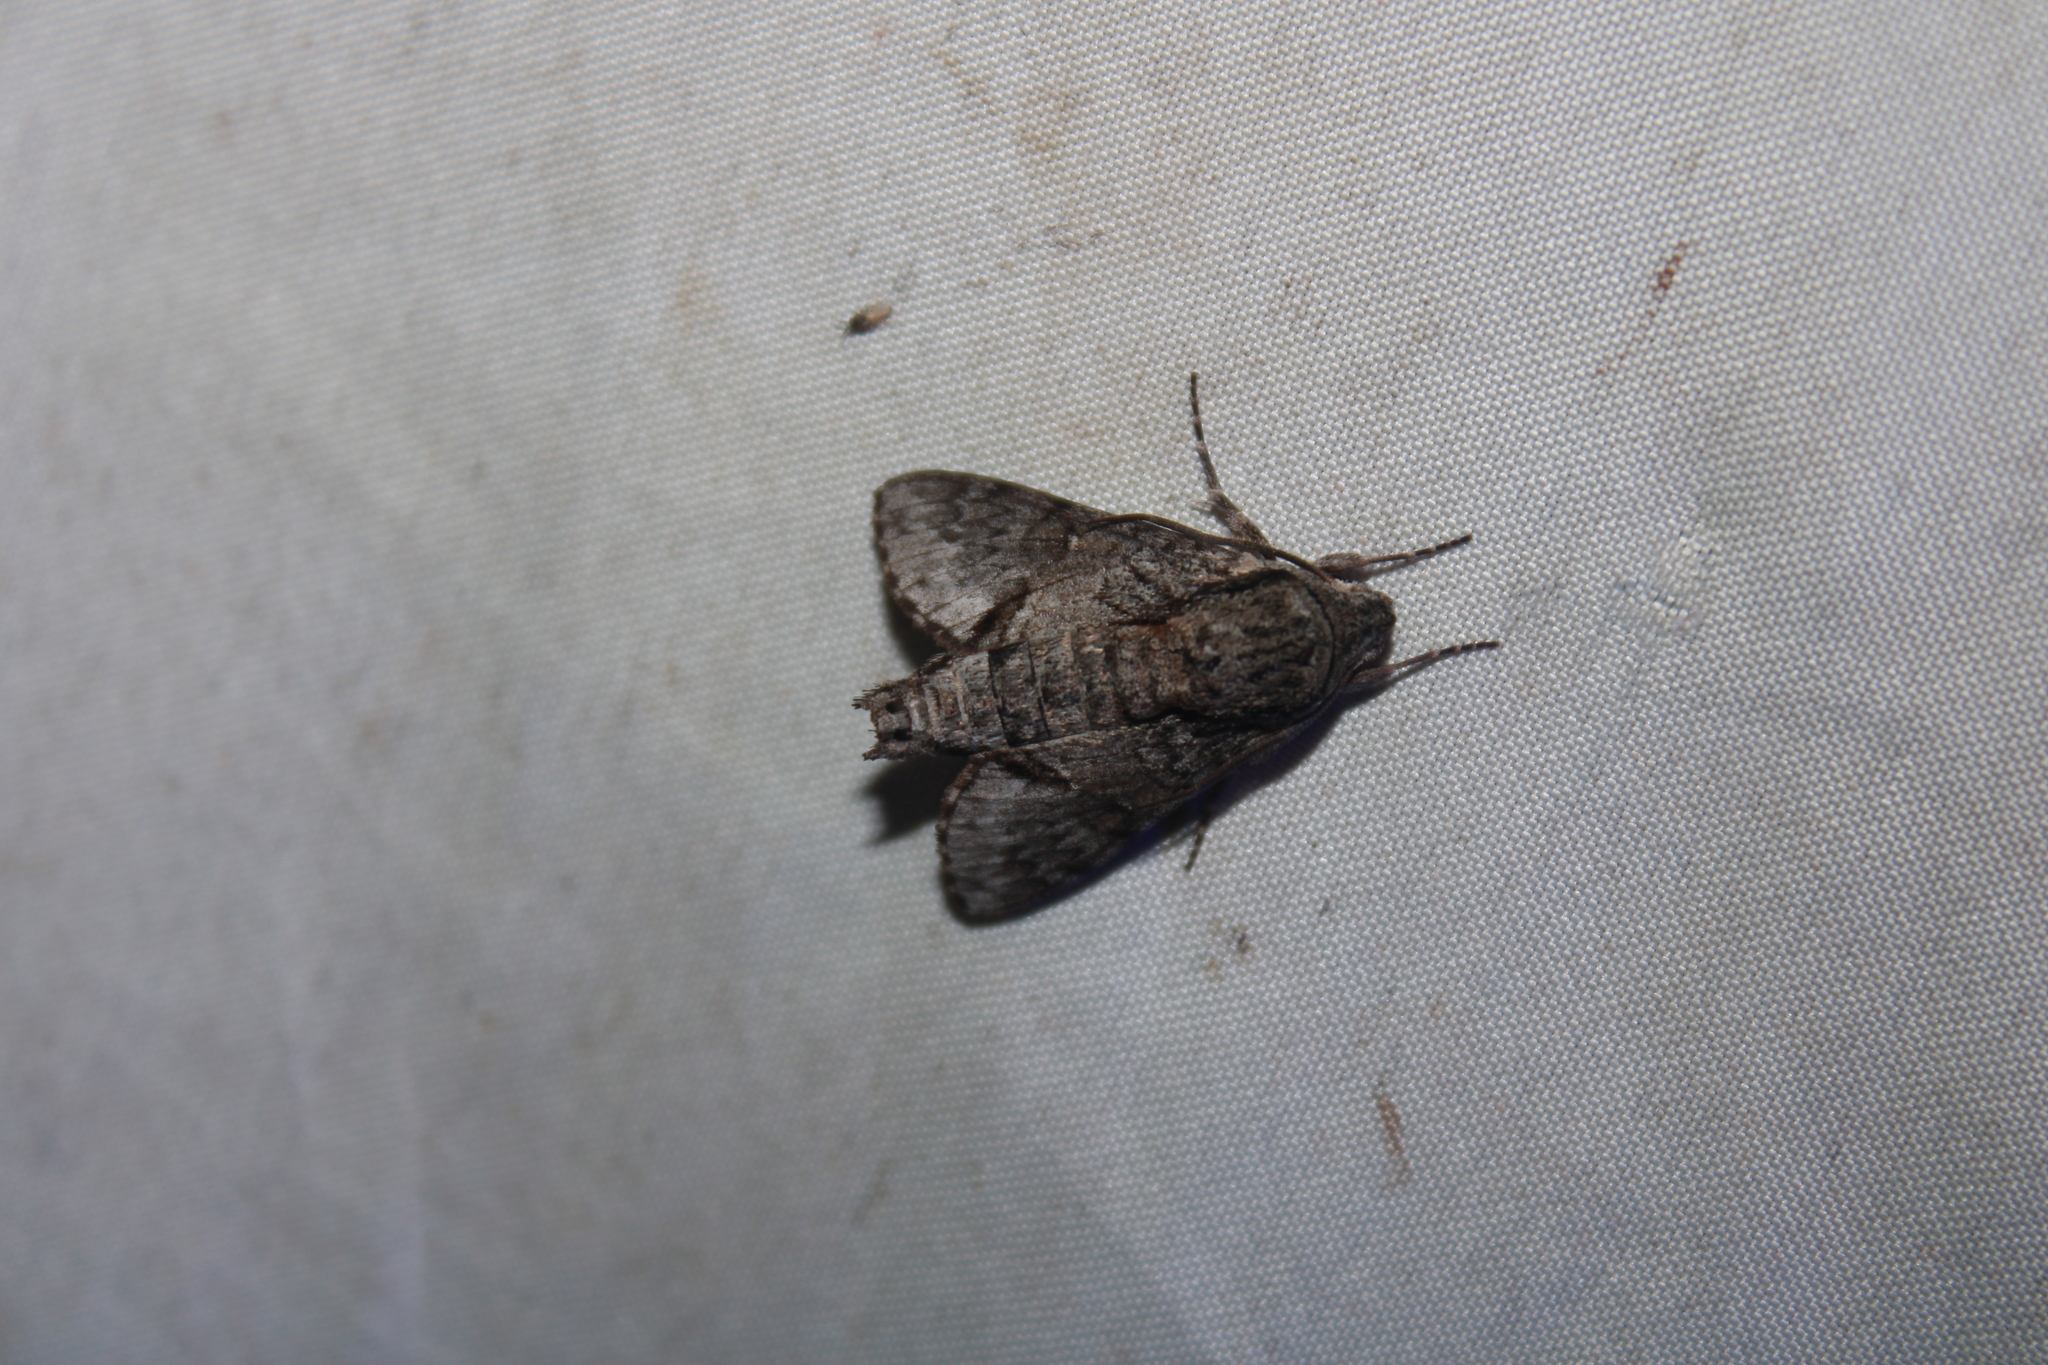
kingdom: Animalia
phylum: Arthropoda
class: Insecta
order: Lepidoptera
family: Sphingidae
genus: Cautethia
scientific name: Cautethia grotei
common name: Grote's sphinx
